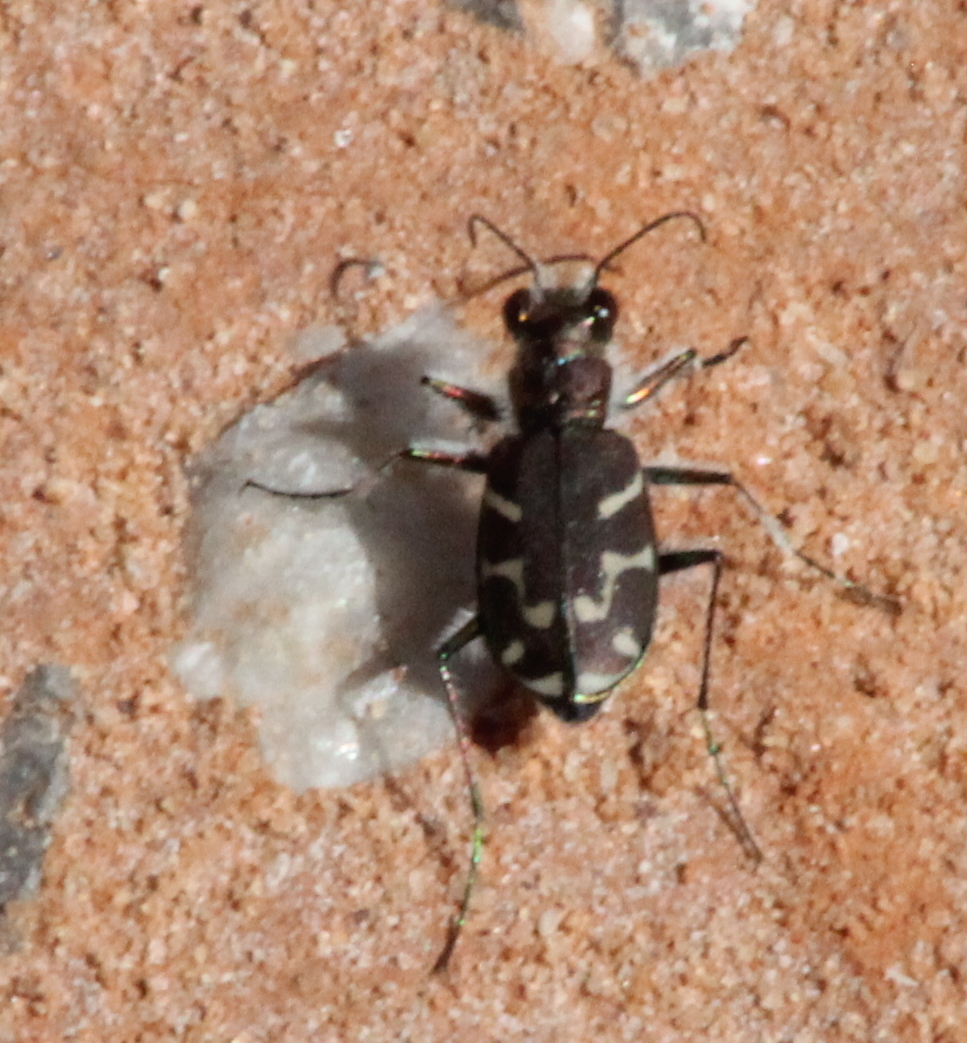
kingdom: Animalia
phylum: Arthropoda
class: Insecta
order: Coleoptera
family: Carabidae
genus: Cicindela
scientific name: Cicindela tranquebarica
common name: Oblique-lined tiger beetle
